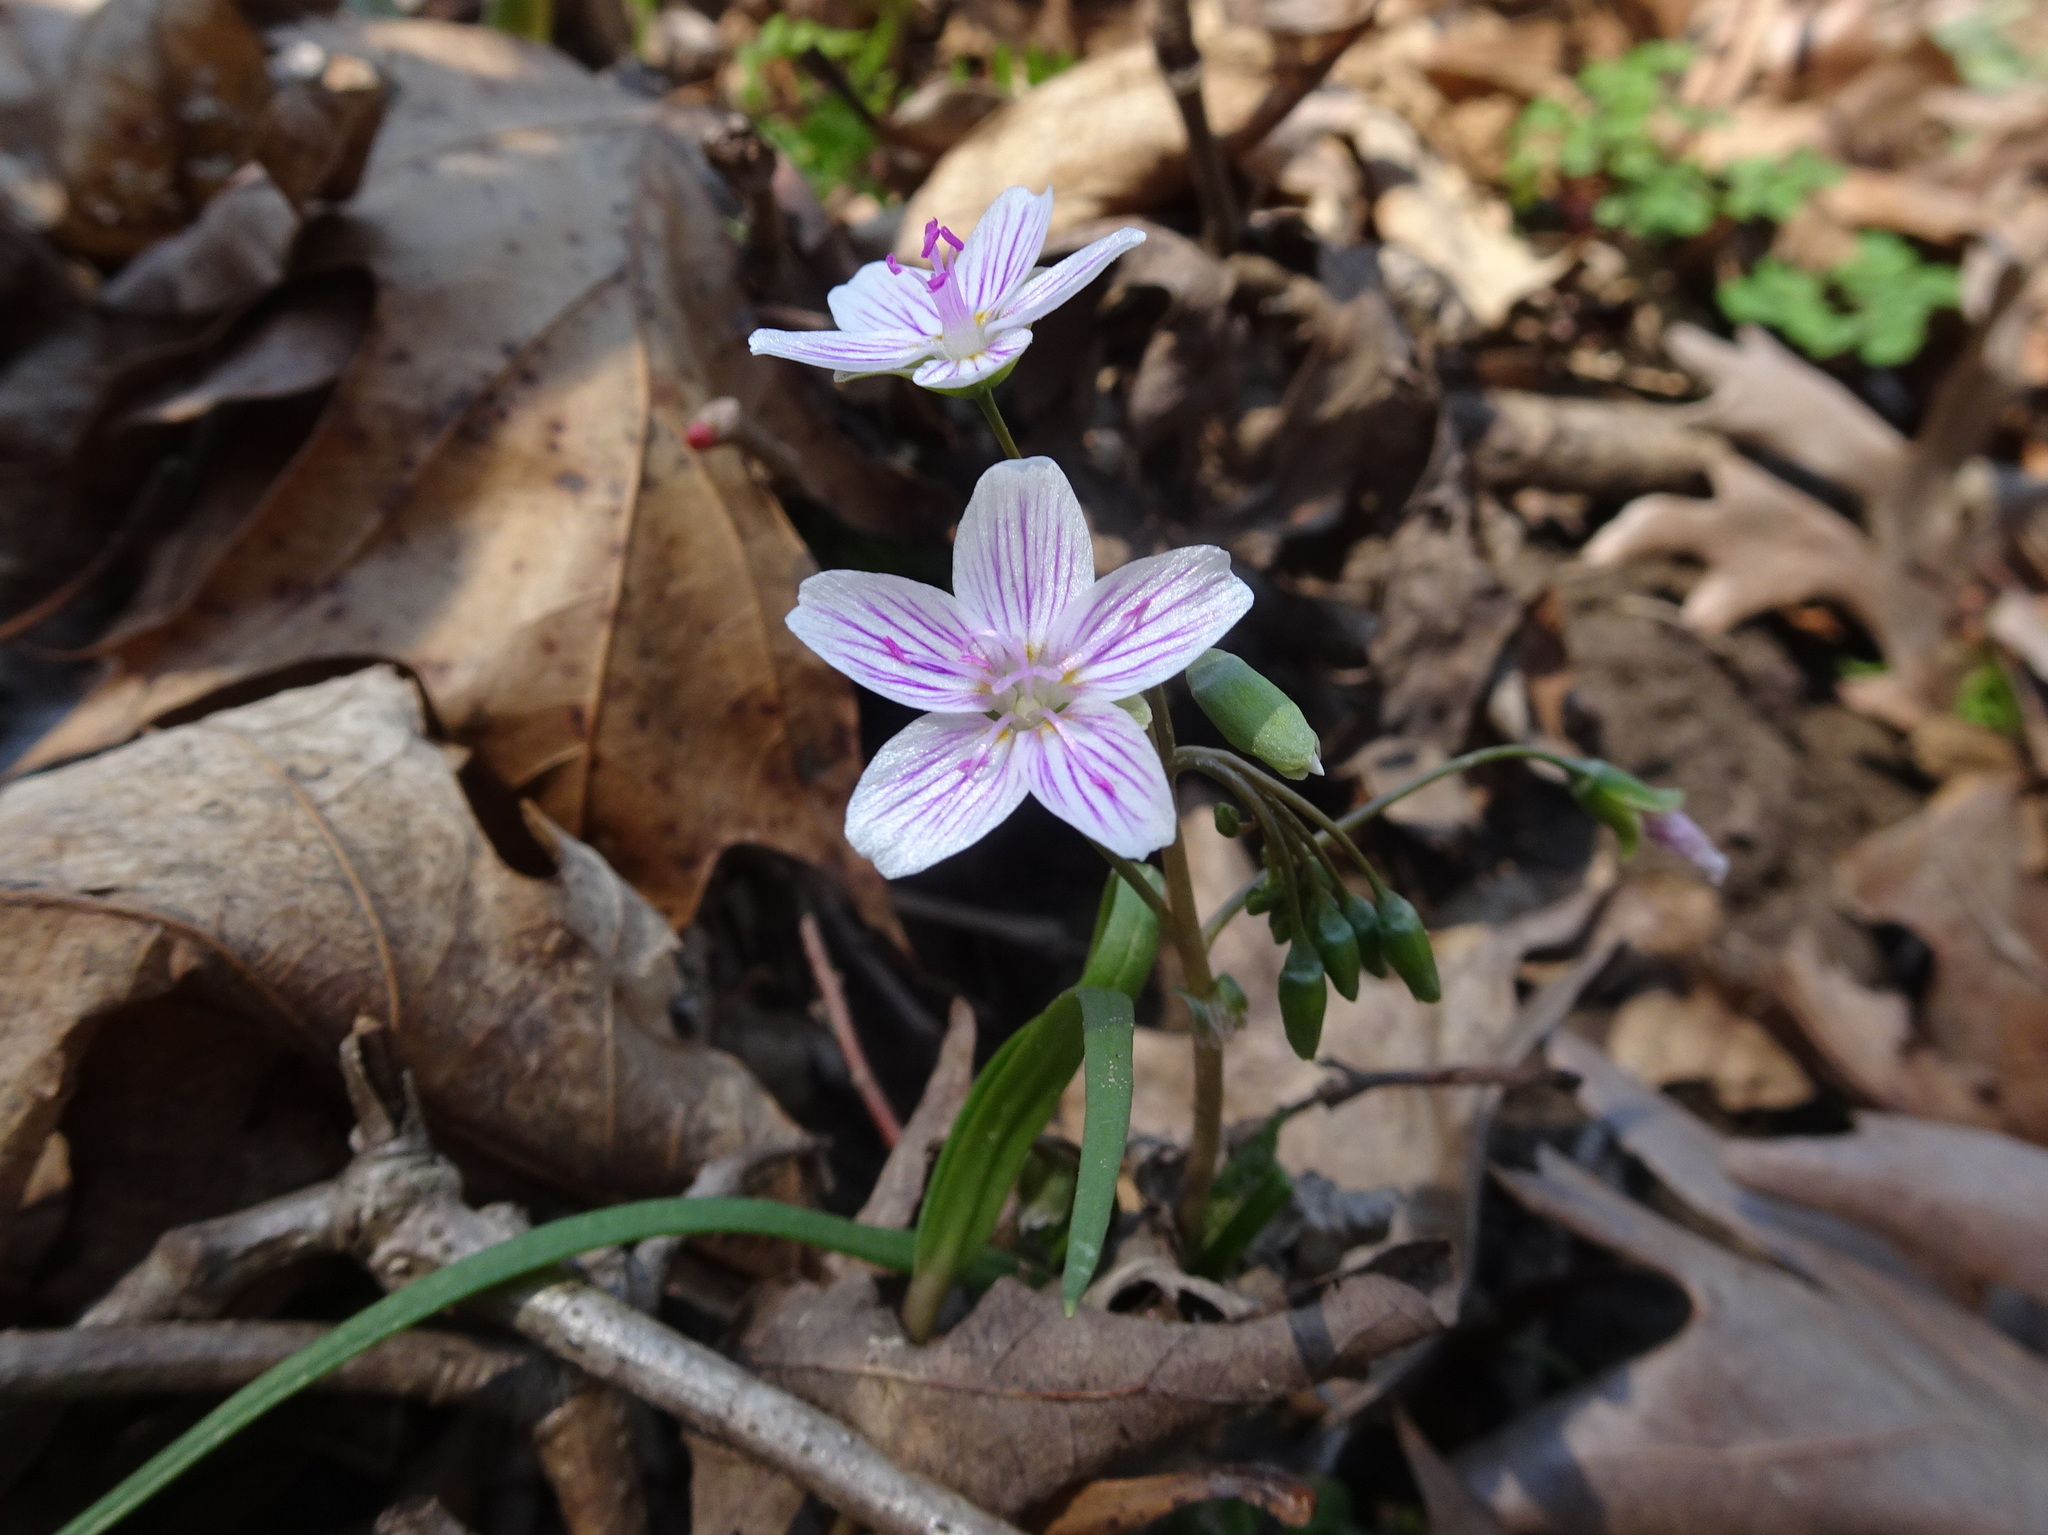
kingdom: Plantae
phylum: Tracheophyta
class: Magnoliopsida
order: Caryophyllales
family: Montiaceae
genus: Claytonia
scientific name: Claytonia virginica
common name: Virginia springbeauty
